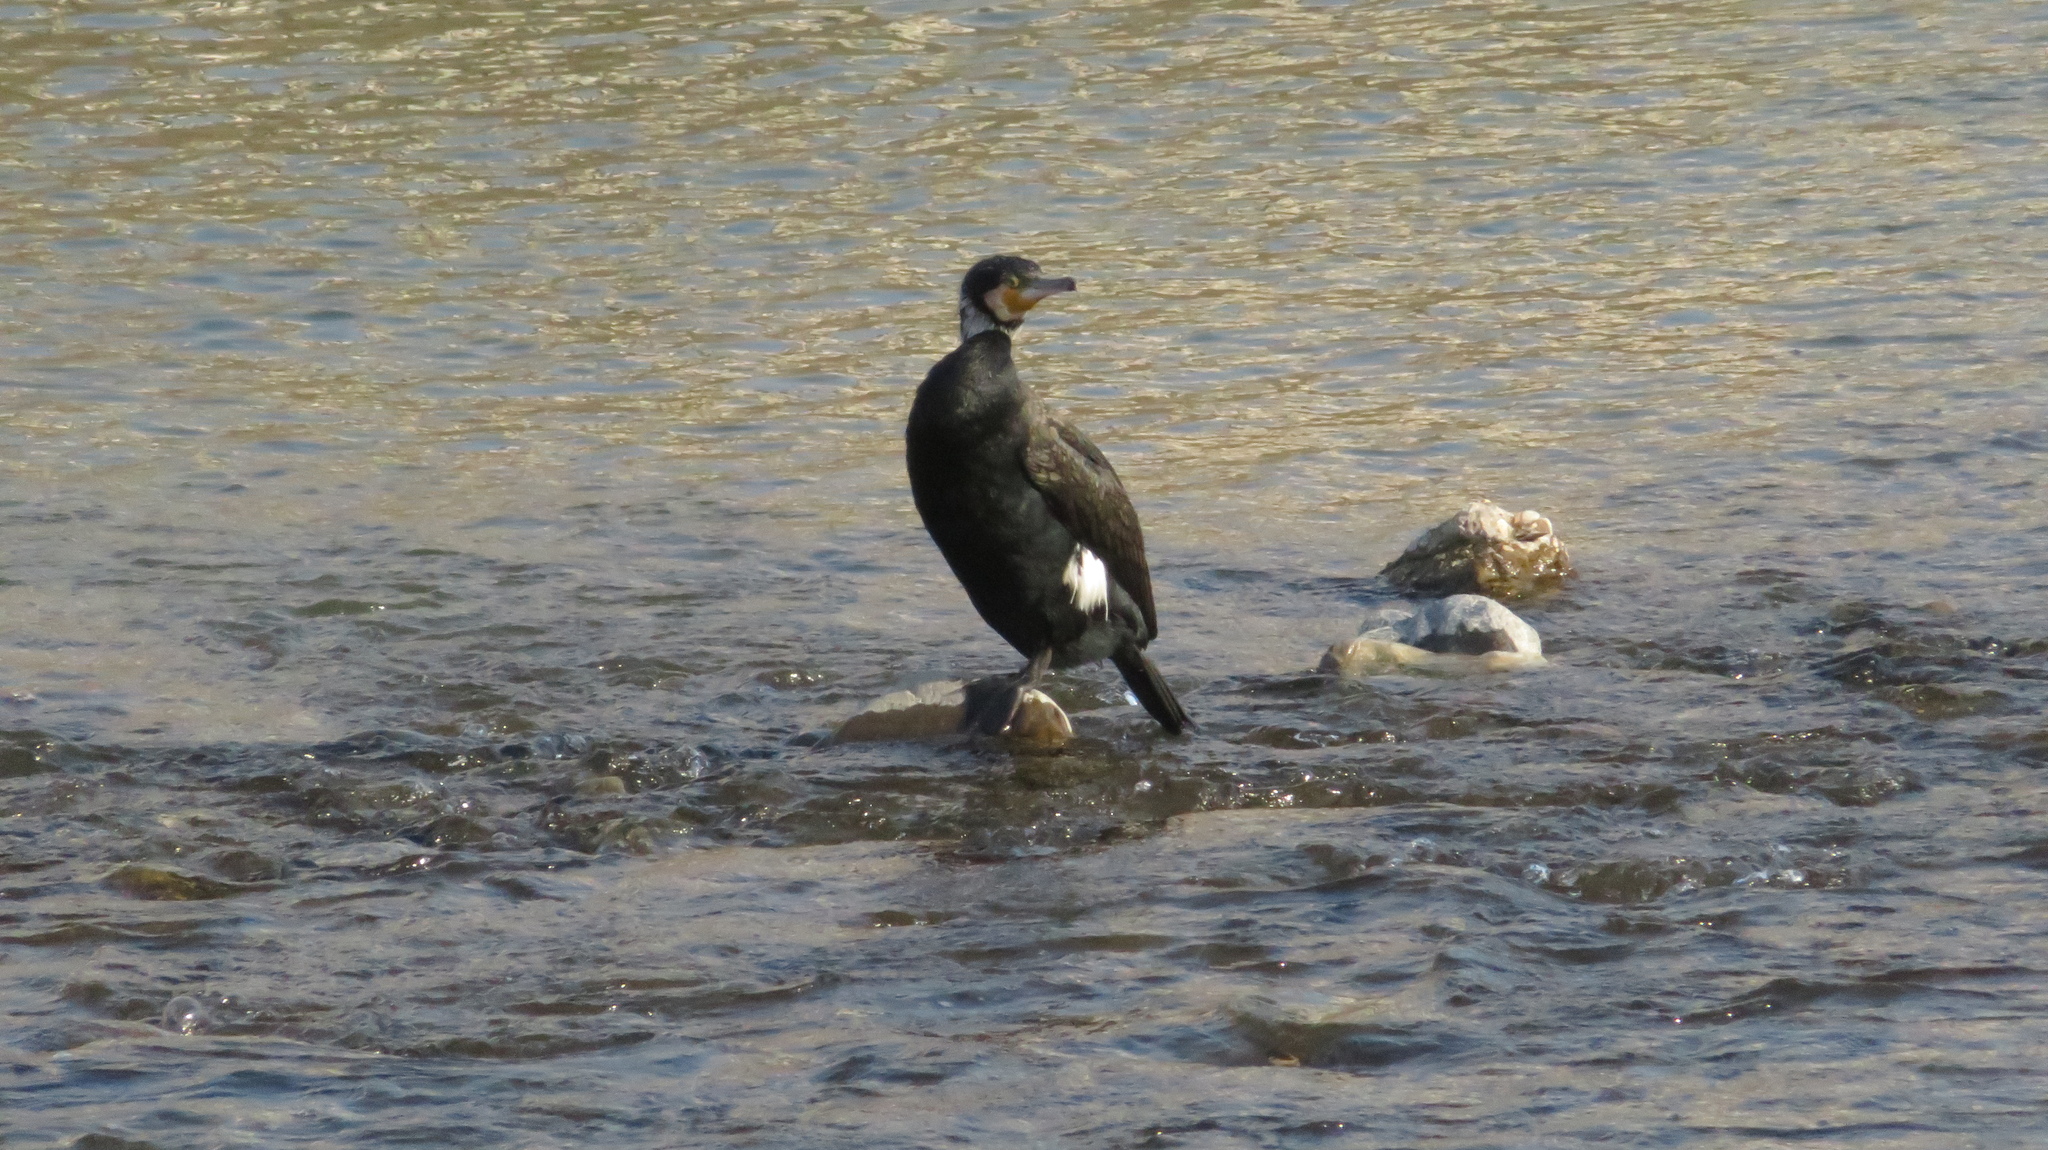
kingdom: Animalia
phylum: Chordata
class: Aves
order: Suliformes
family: Phalacrocoracidae
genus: Phalacrocorax
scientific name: Phalacrocorax carbo
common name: Great cormorant
